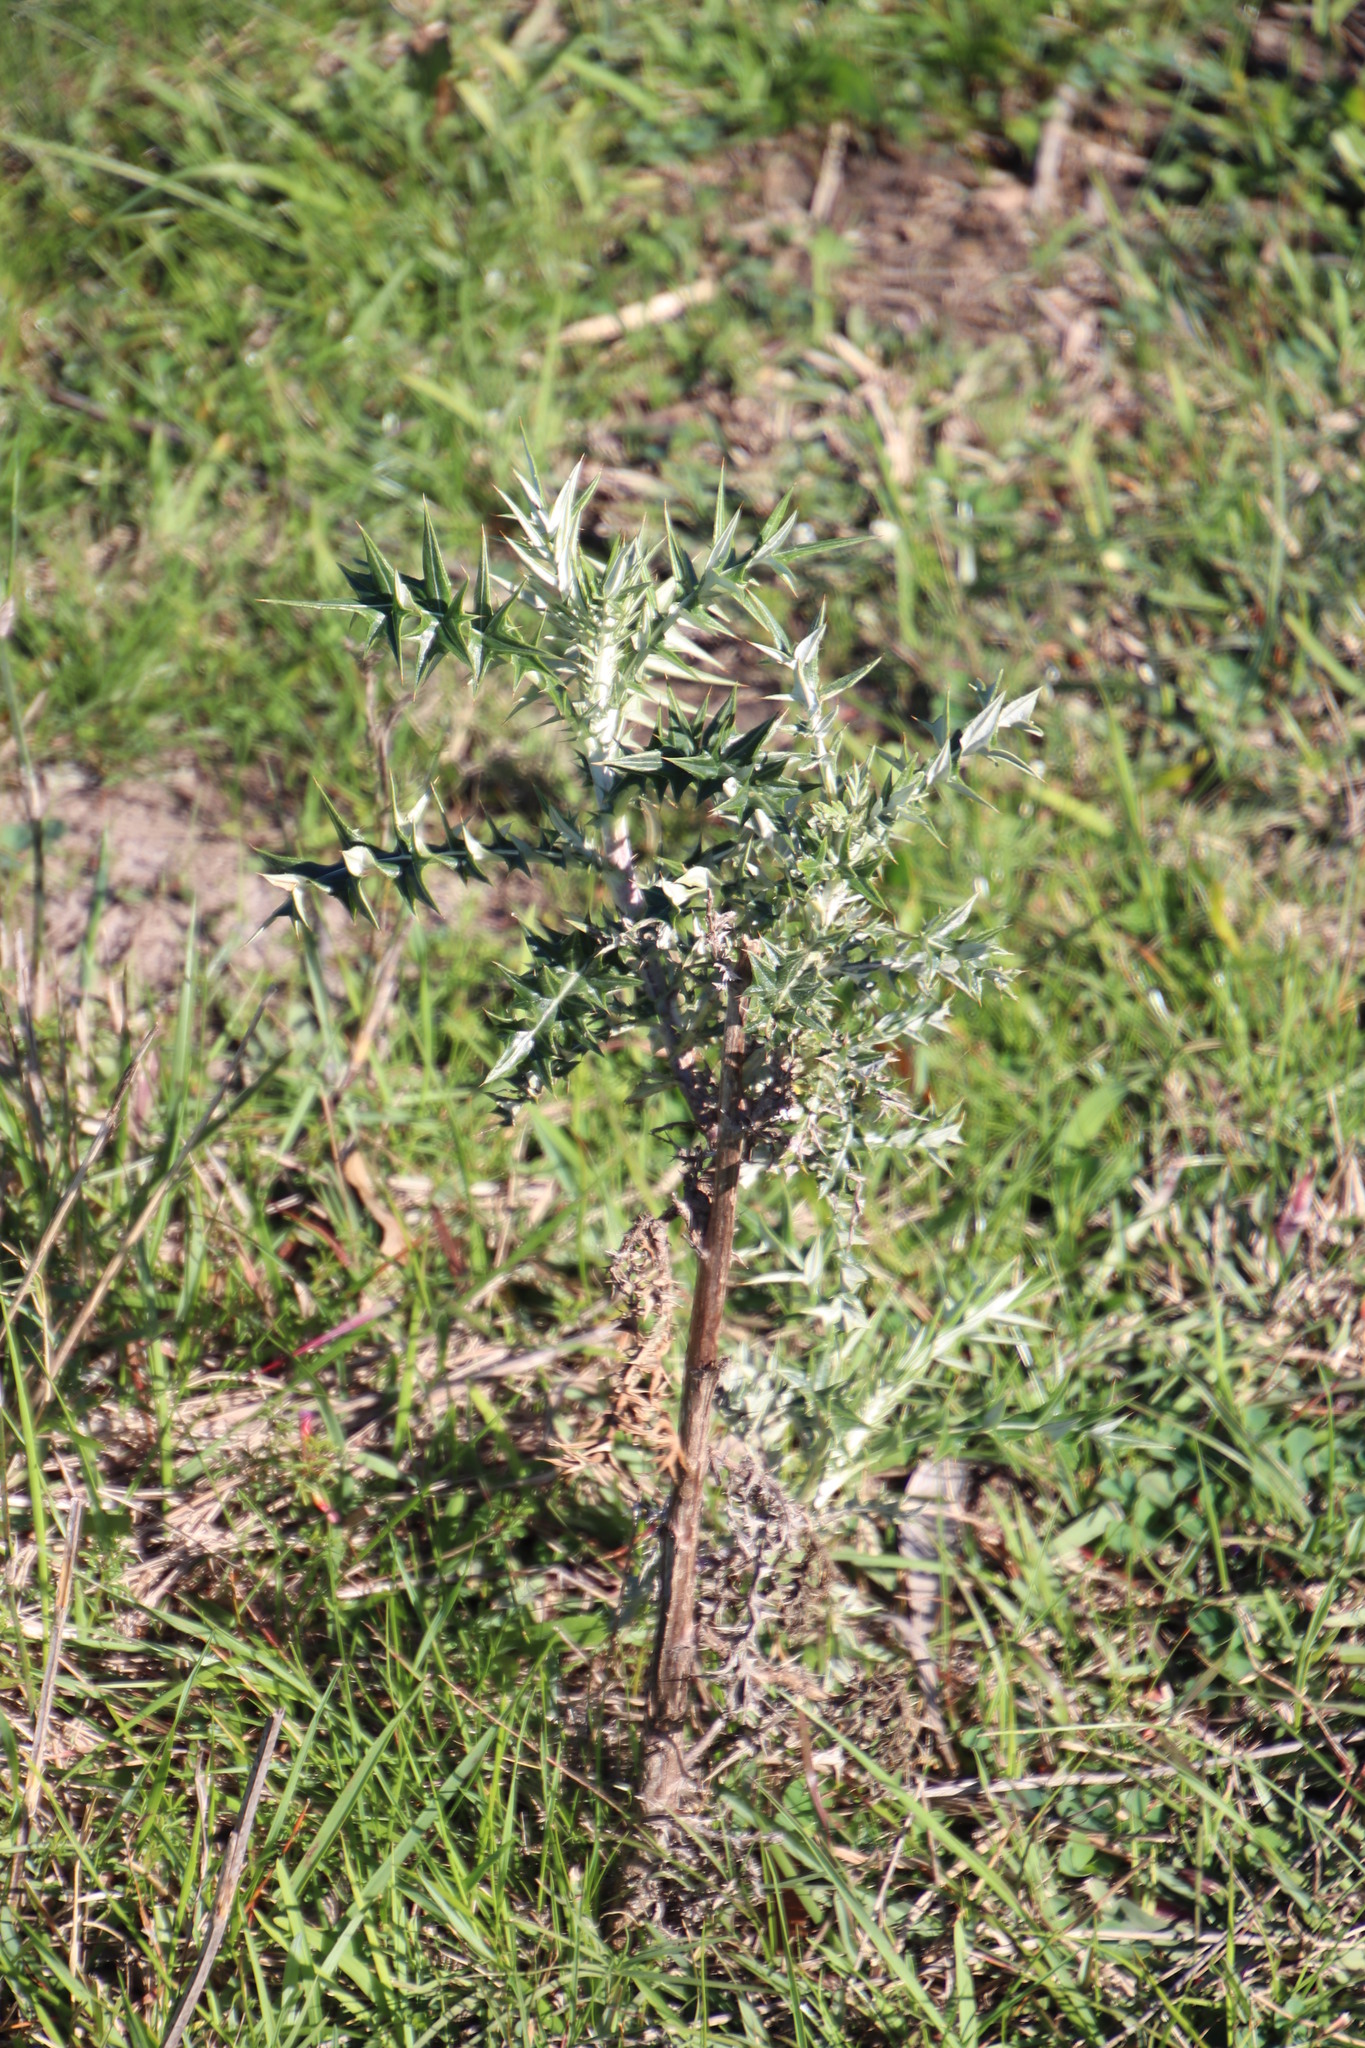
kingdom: Plantae
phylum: Tracheophyta
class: Magnoliopsida
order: Asterales
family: Asteraceae
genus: Berkheya
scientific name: Berkheya rigida
